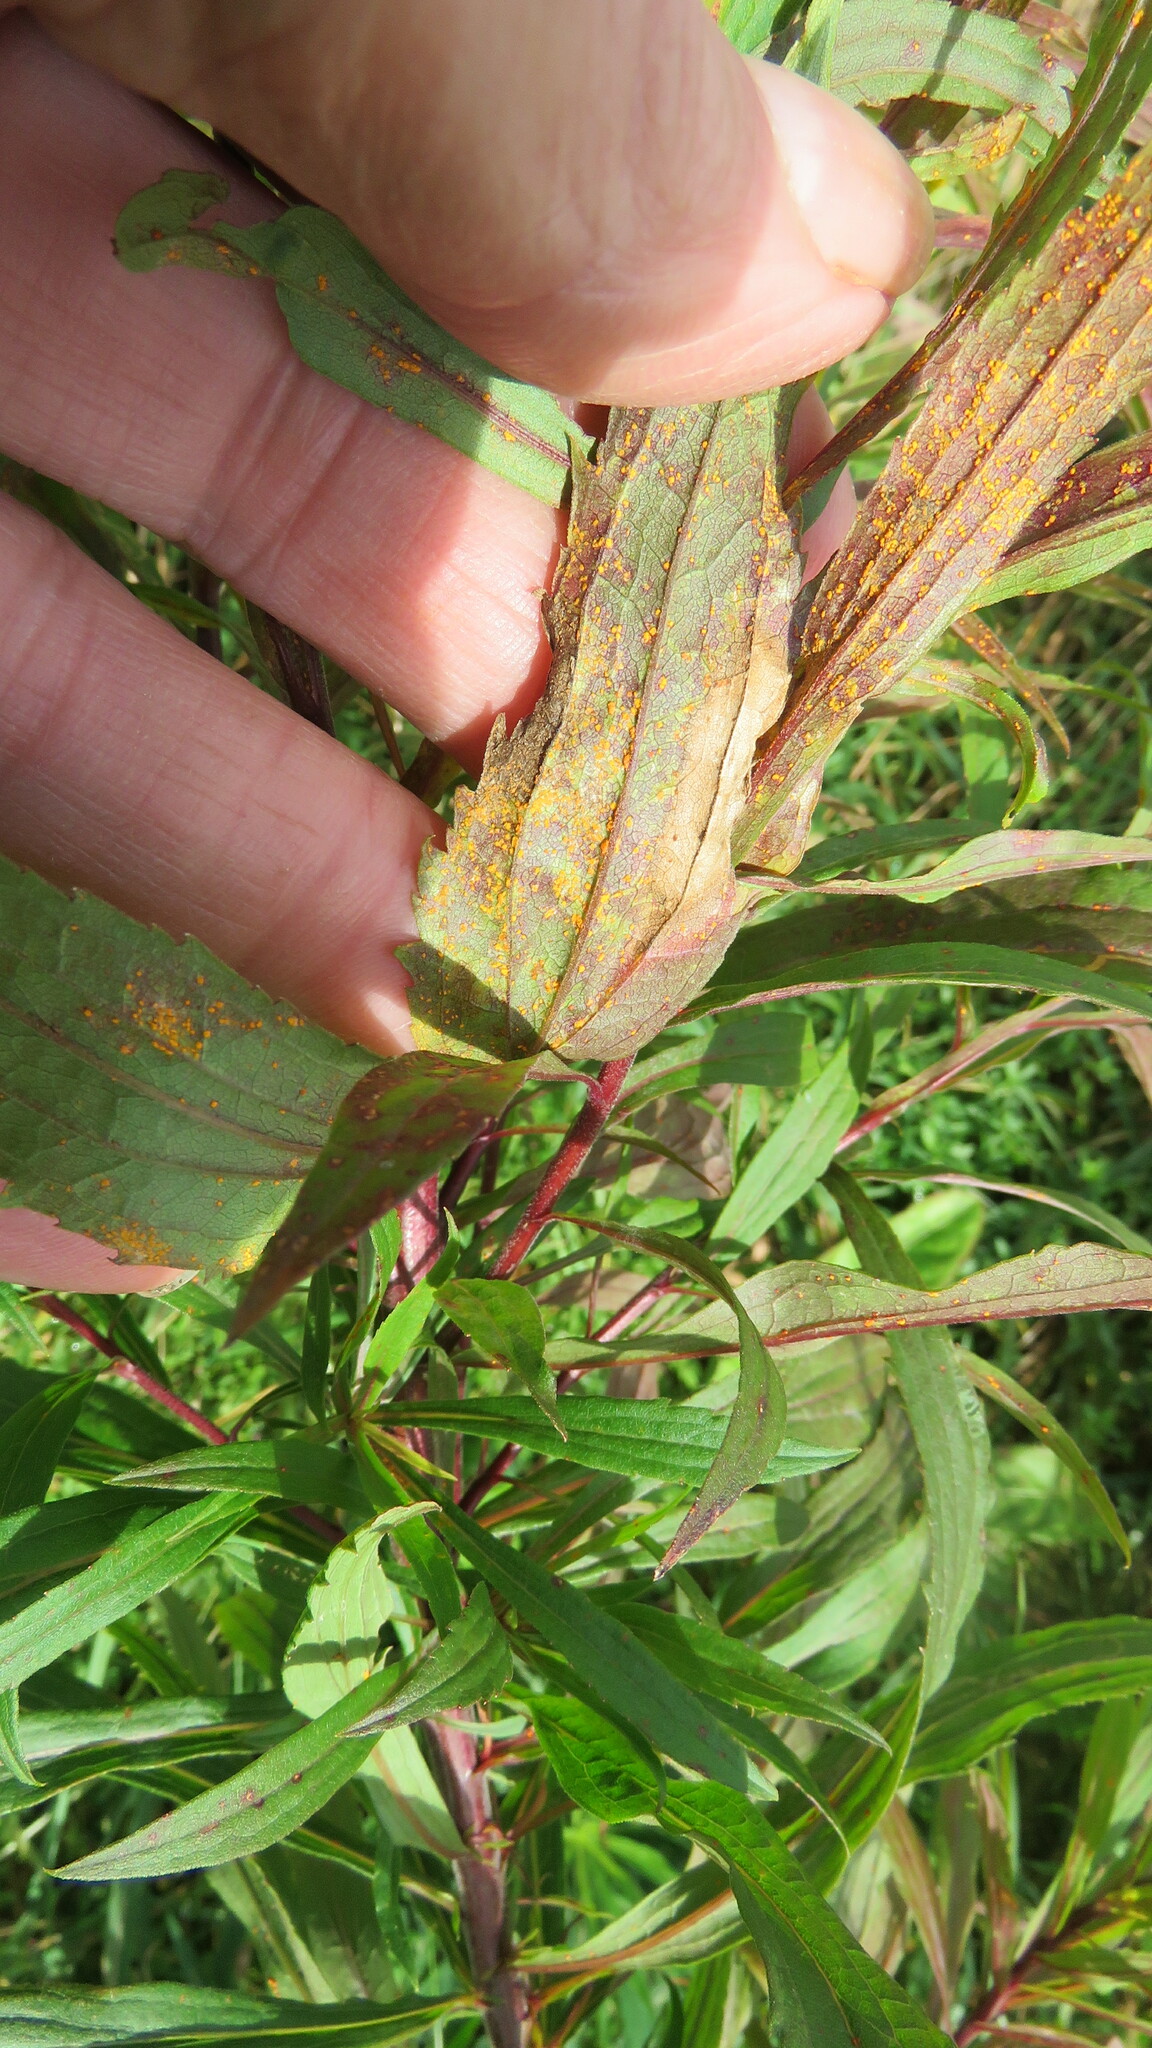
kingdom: Fungi
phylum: Basidiomycota
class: Pucciniomycetes
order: Pucciniales
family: Coleosporiaceae
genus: Coleosporium
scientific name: Coleosporium asterum
